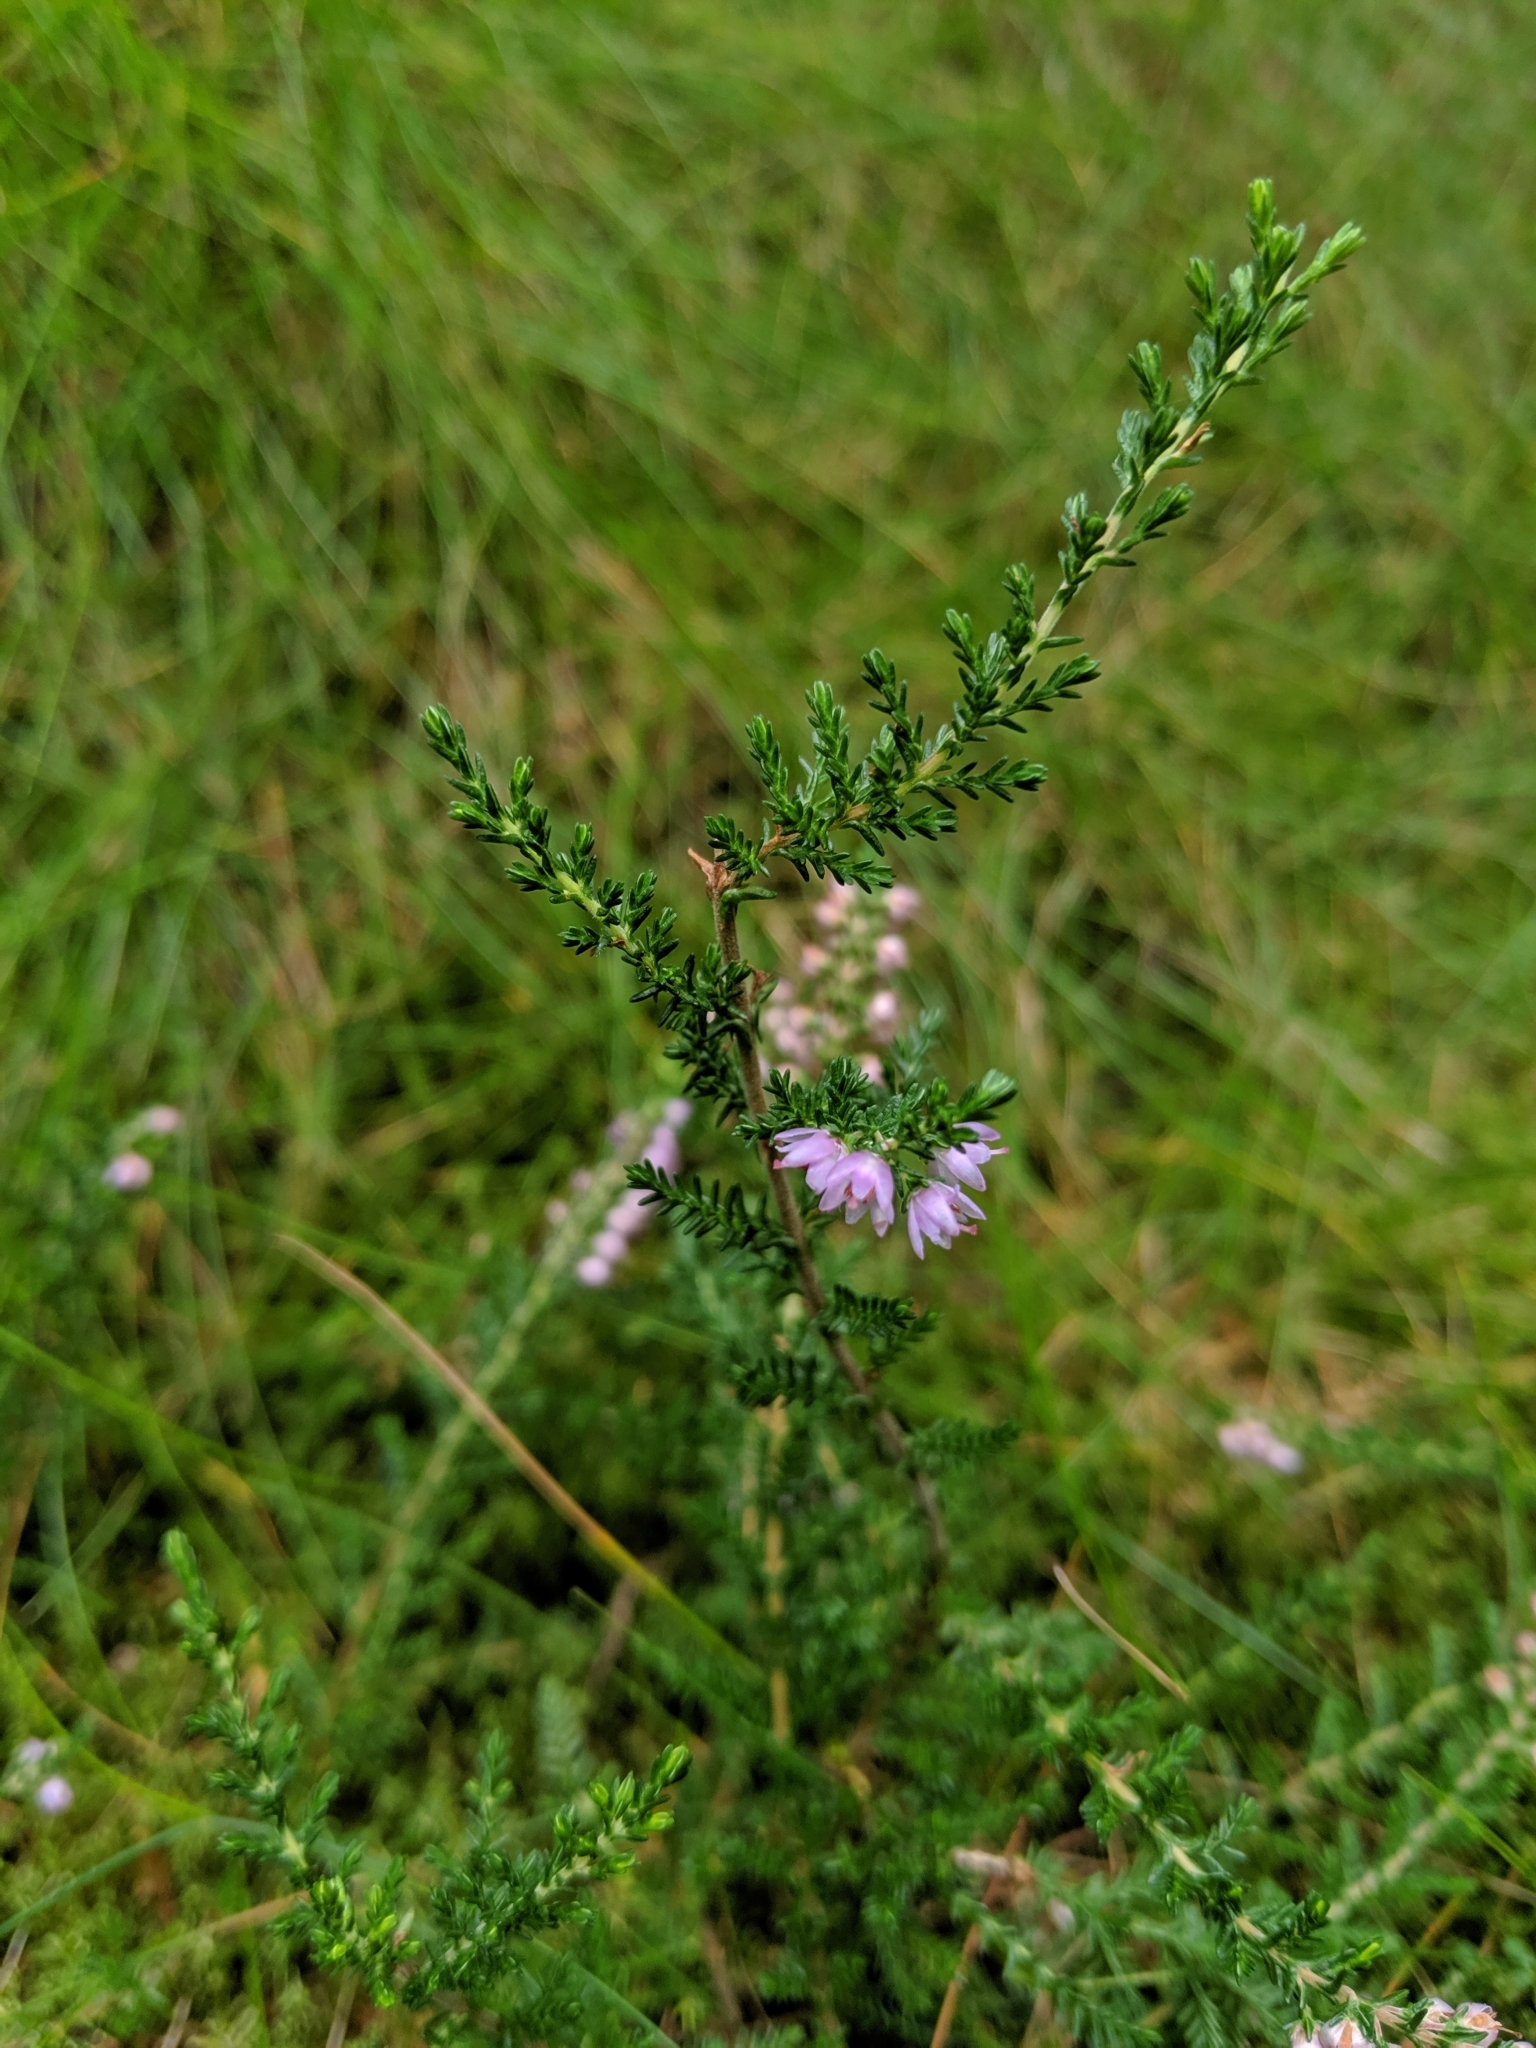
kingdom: Plantae
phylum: Tracheophyta
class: Magnoliopsida
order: Ericales
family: Ericaceae
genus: Calluna
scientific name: Calluna vulgaris
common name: Heather
